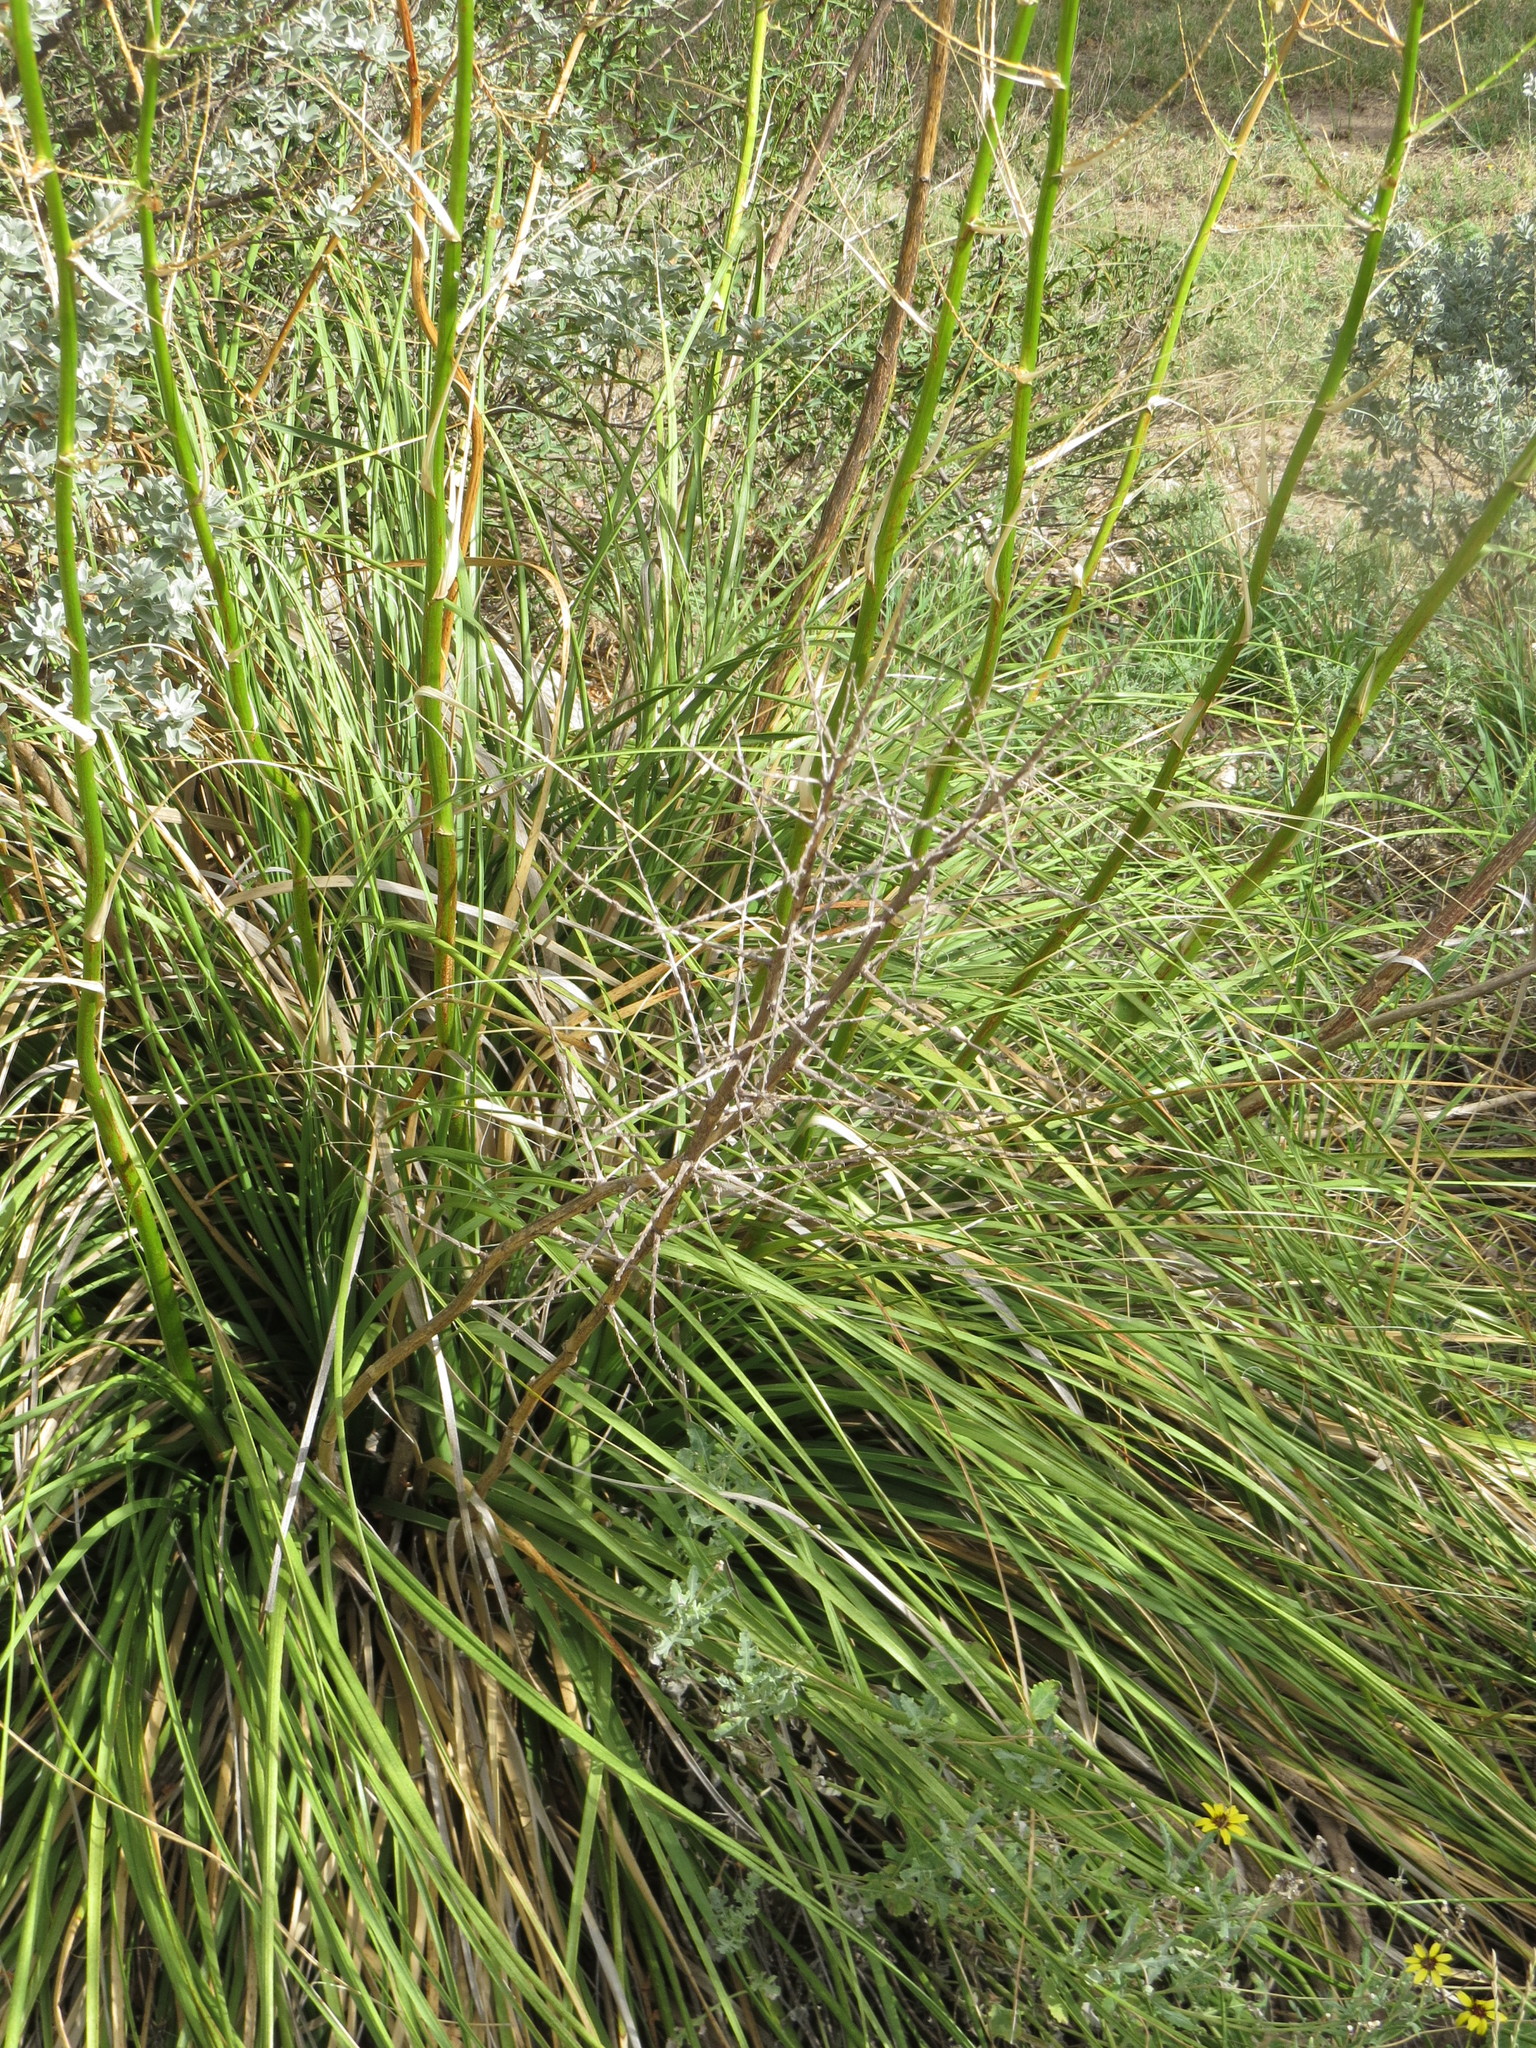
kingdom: Plantae
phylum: Tracheophyta
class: Liliopsida
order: Asparagales
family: Asparagaceae
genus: Nolina
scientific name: Nolina lindheimeriana
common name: Lindheimer's bear-grass
